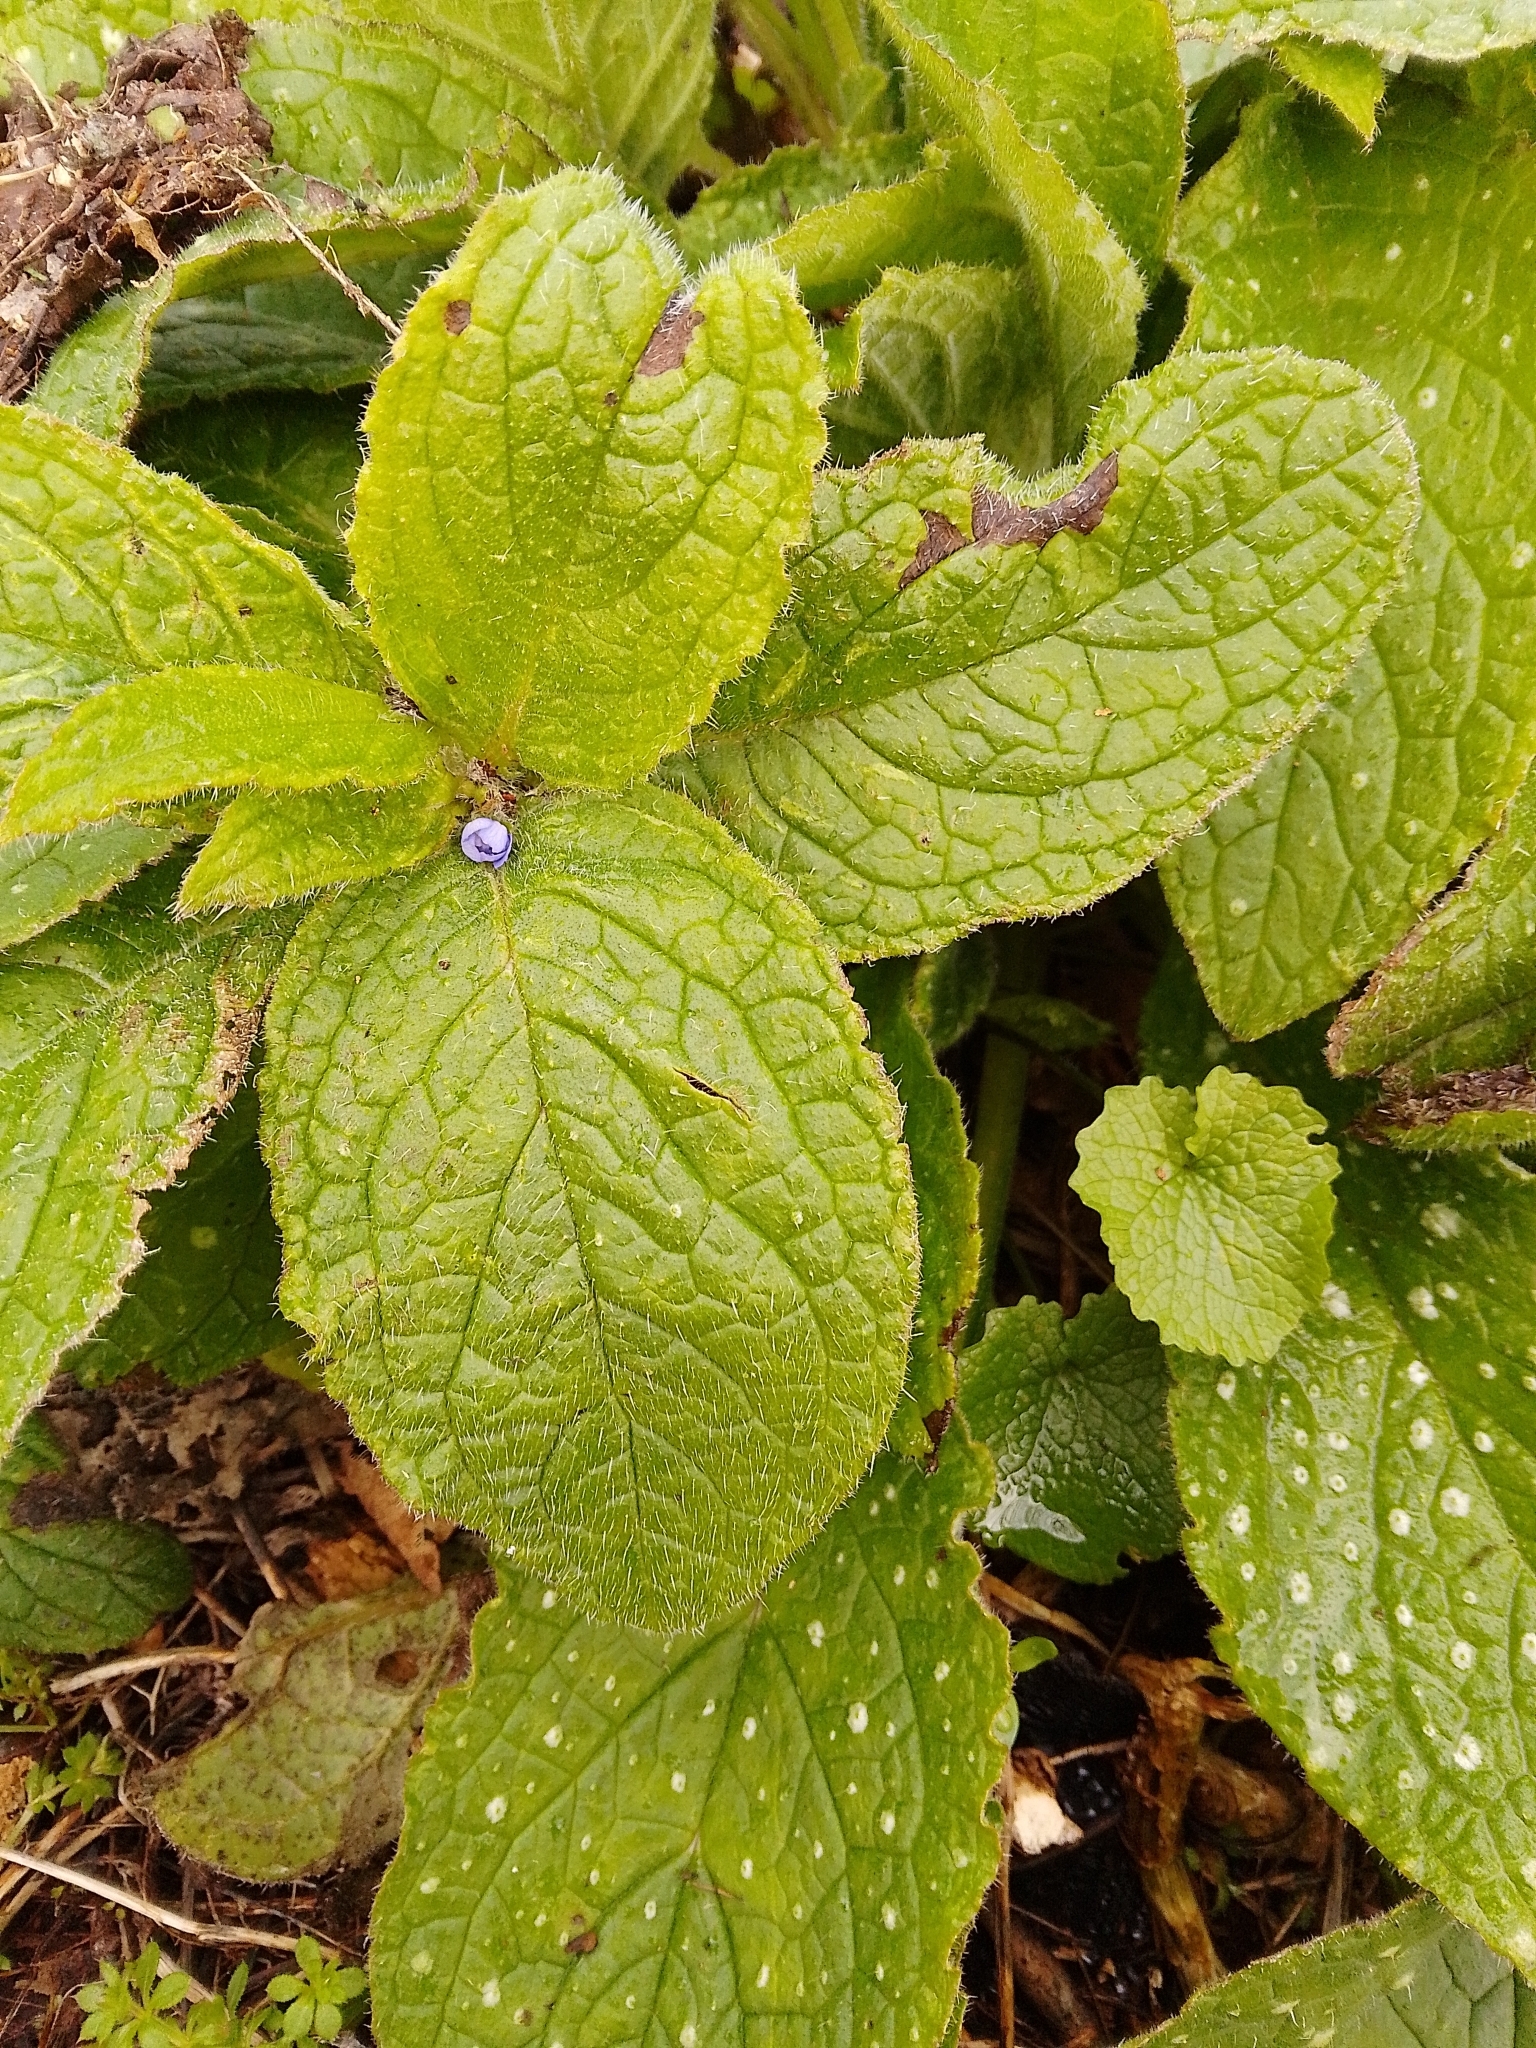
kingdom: Plantae
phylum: Tracheophyta
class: Magnoliopsida
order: Boraginales
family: Boraginaceae
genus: Pentaglottis
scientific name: Pentaglottis sempervirens
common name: Green alkanet
